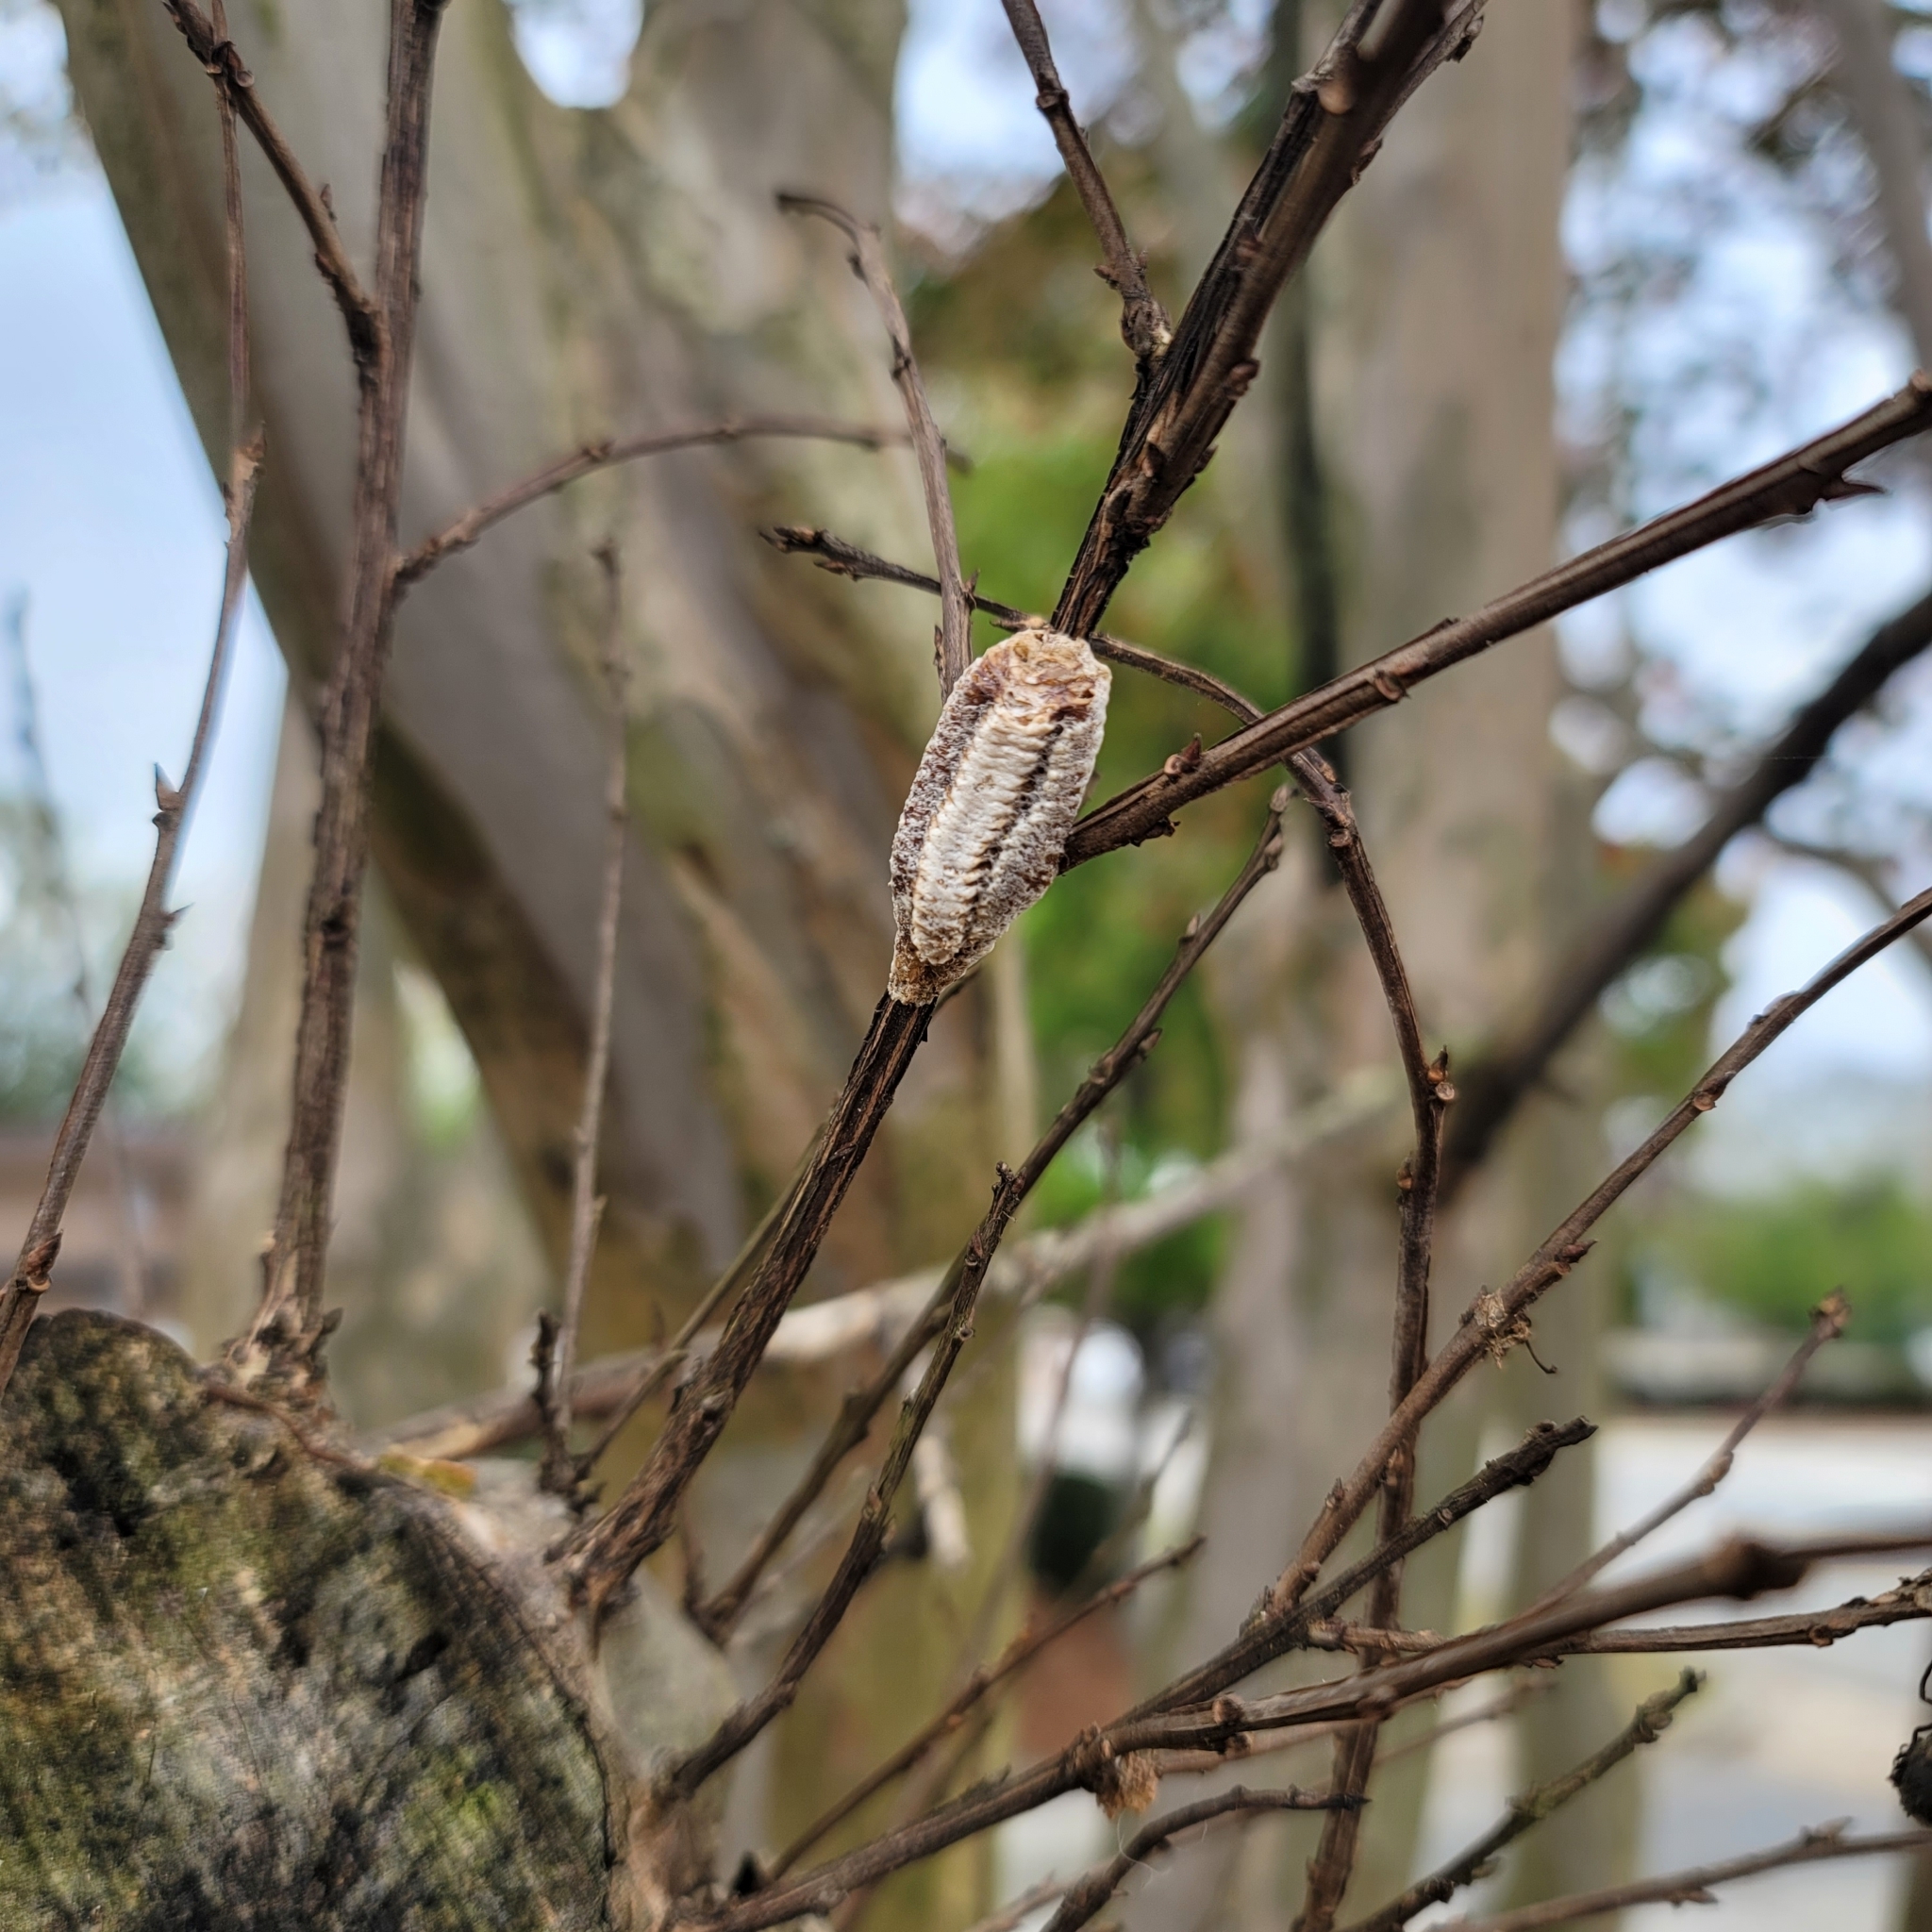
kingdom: Animalia
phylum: Arthropoda
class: Insecta
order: Mantodea
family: Mantidae
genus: Stagmomantis
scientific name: Stagmomantis carolina
